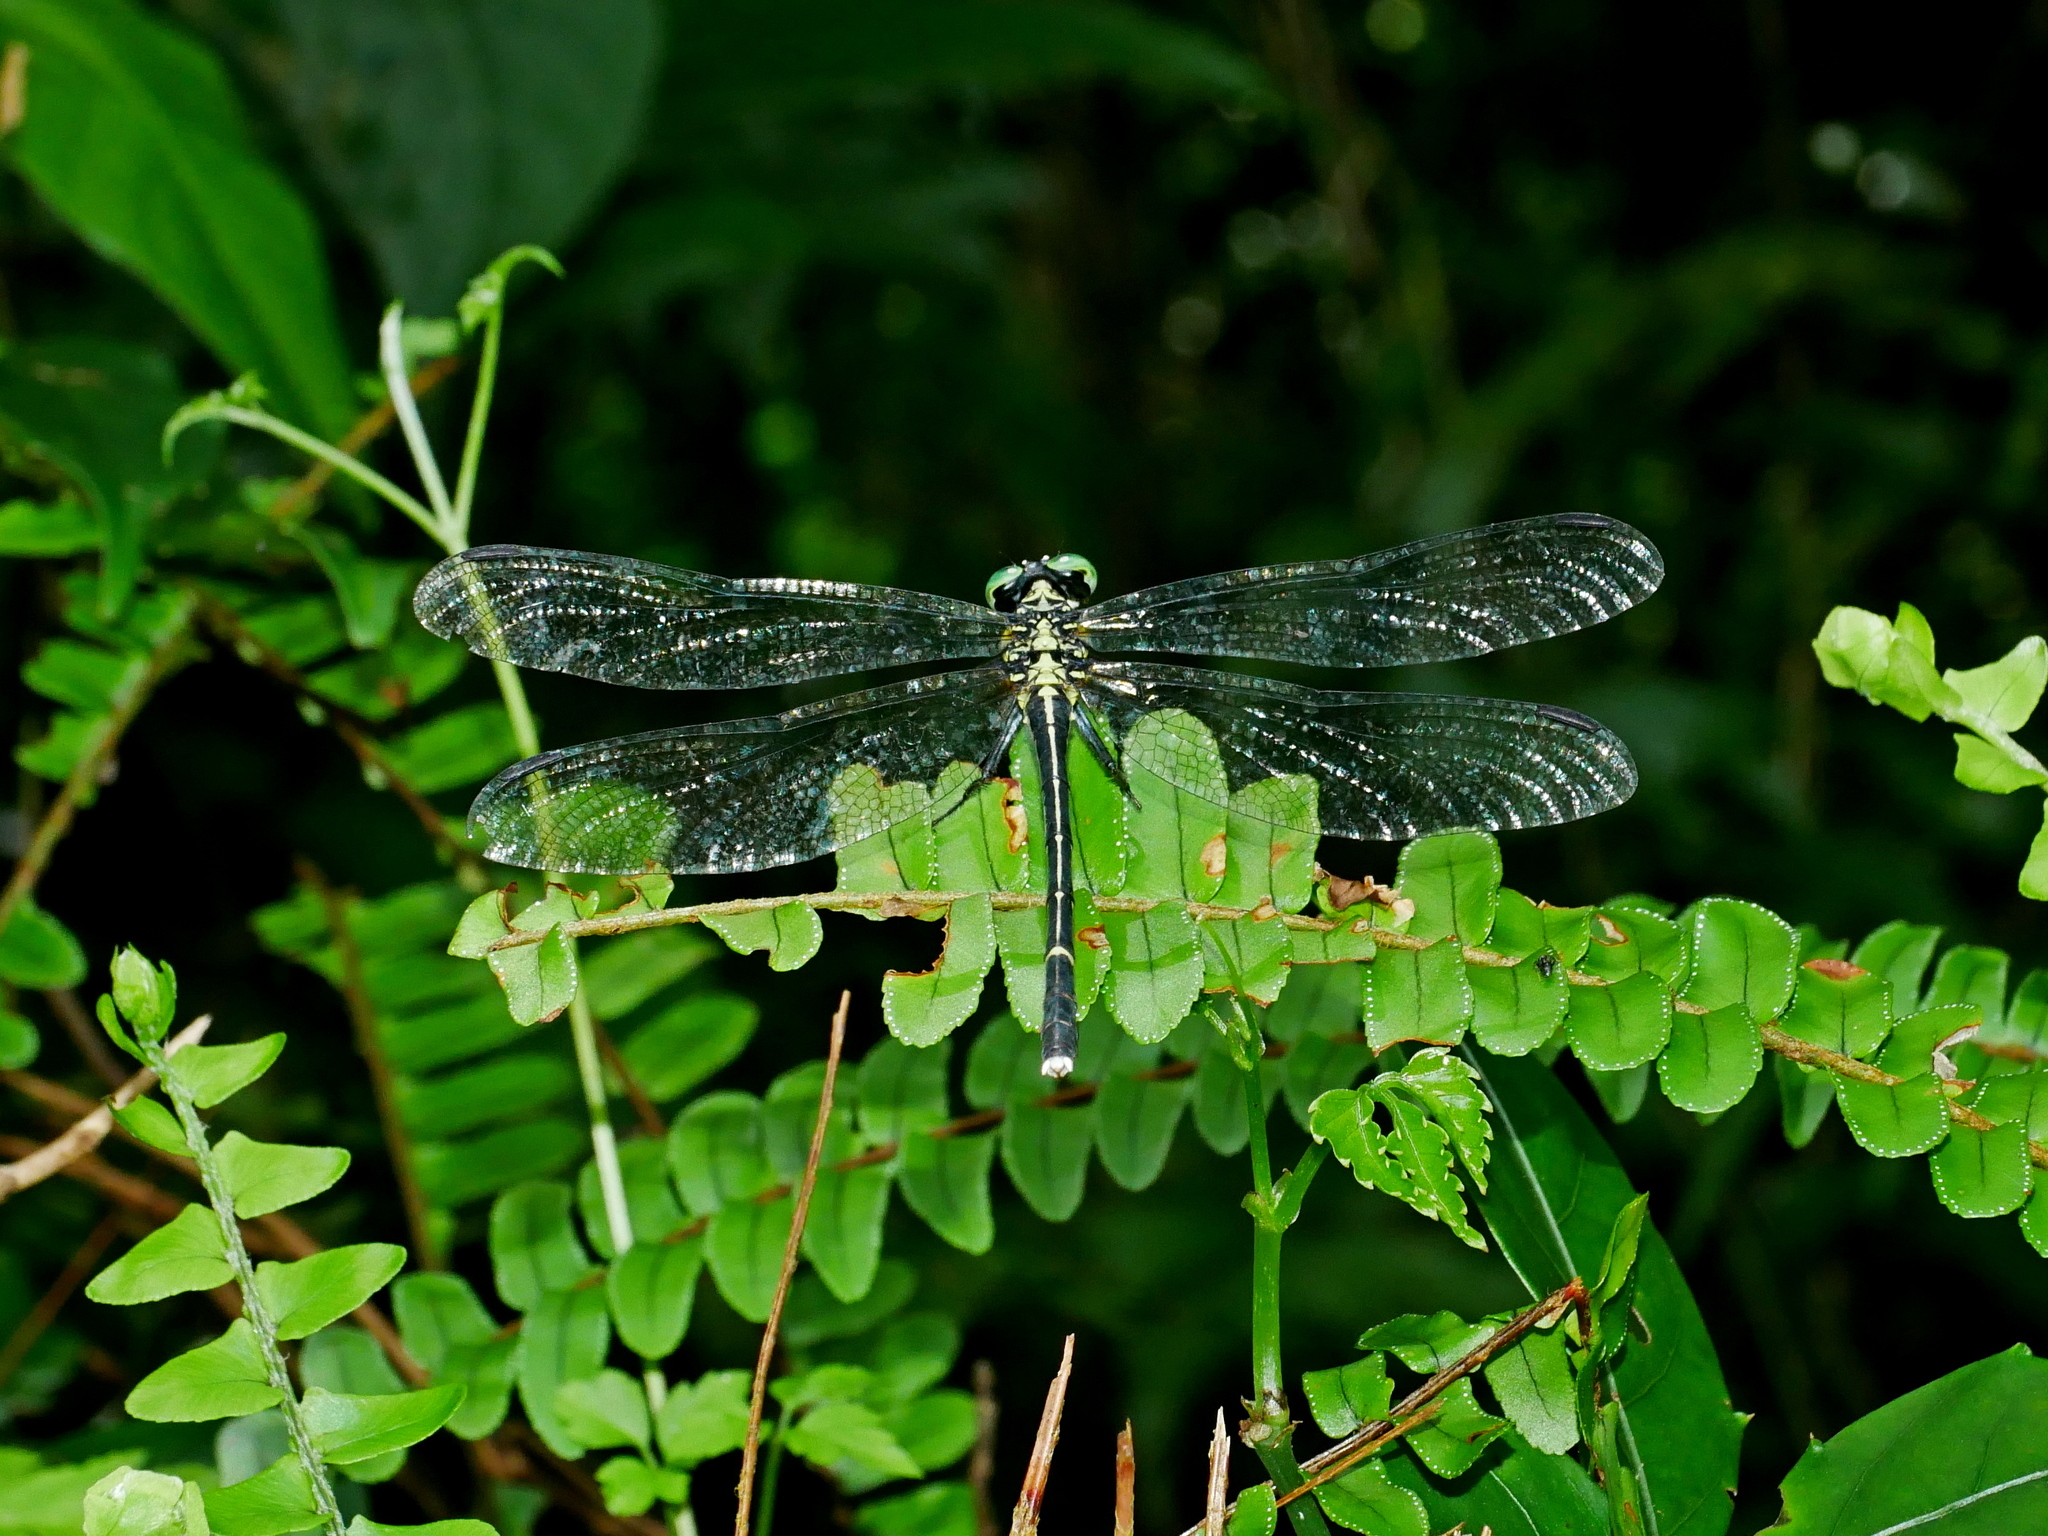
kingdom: Animalia
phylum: Arthropoda
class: Insecta
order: Odonata
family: Gomphidae
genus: Leptogomphus
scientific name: Leptogomphus sauteri
